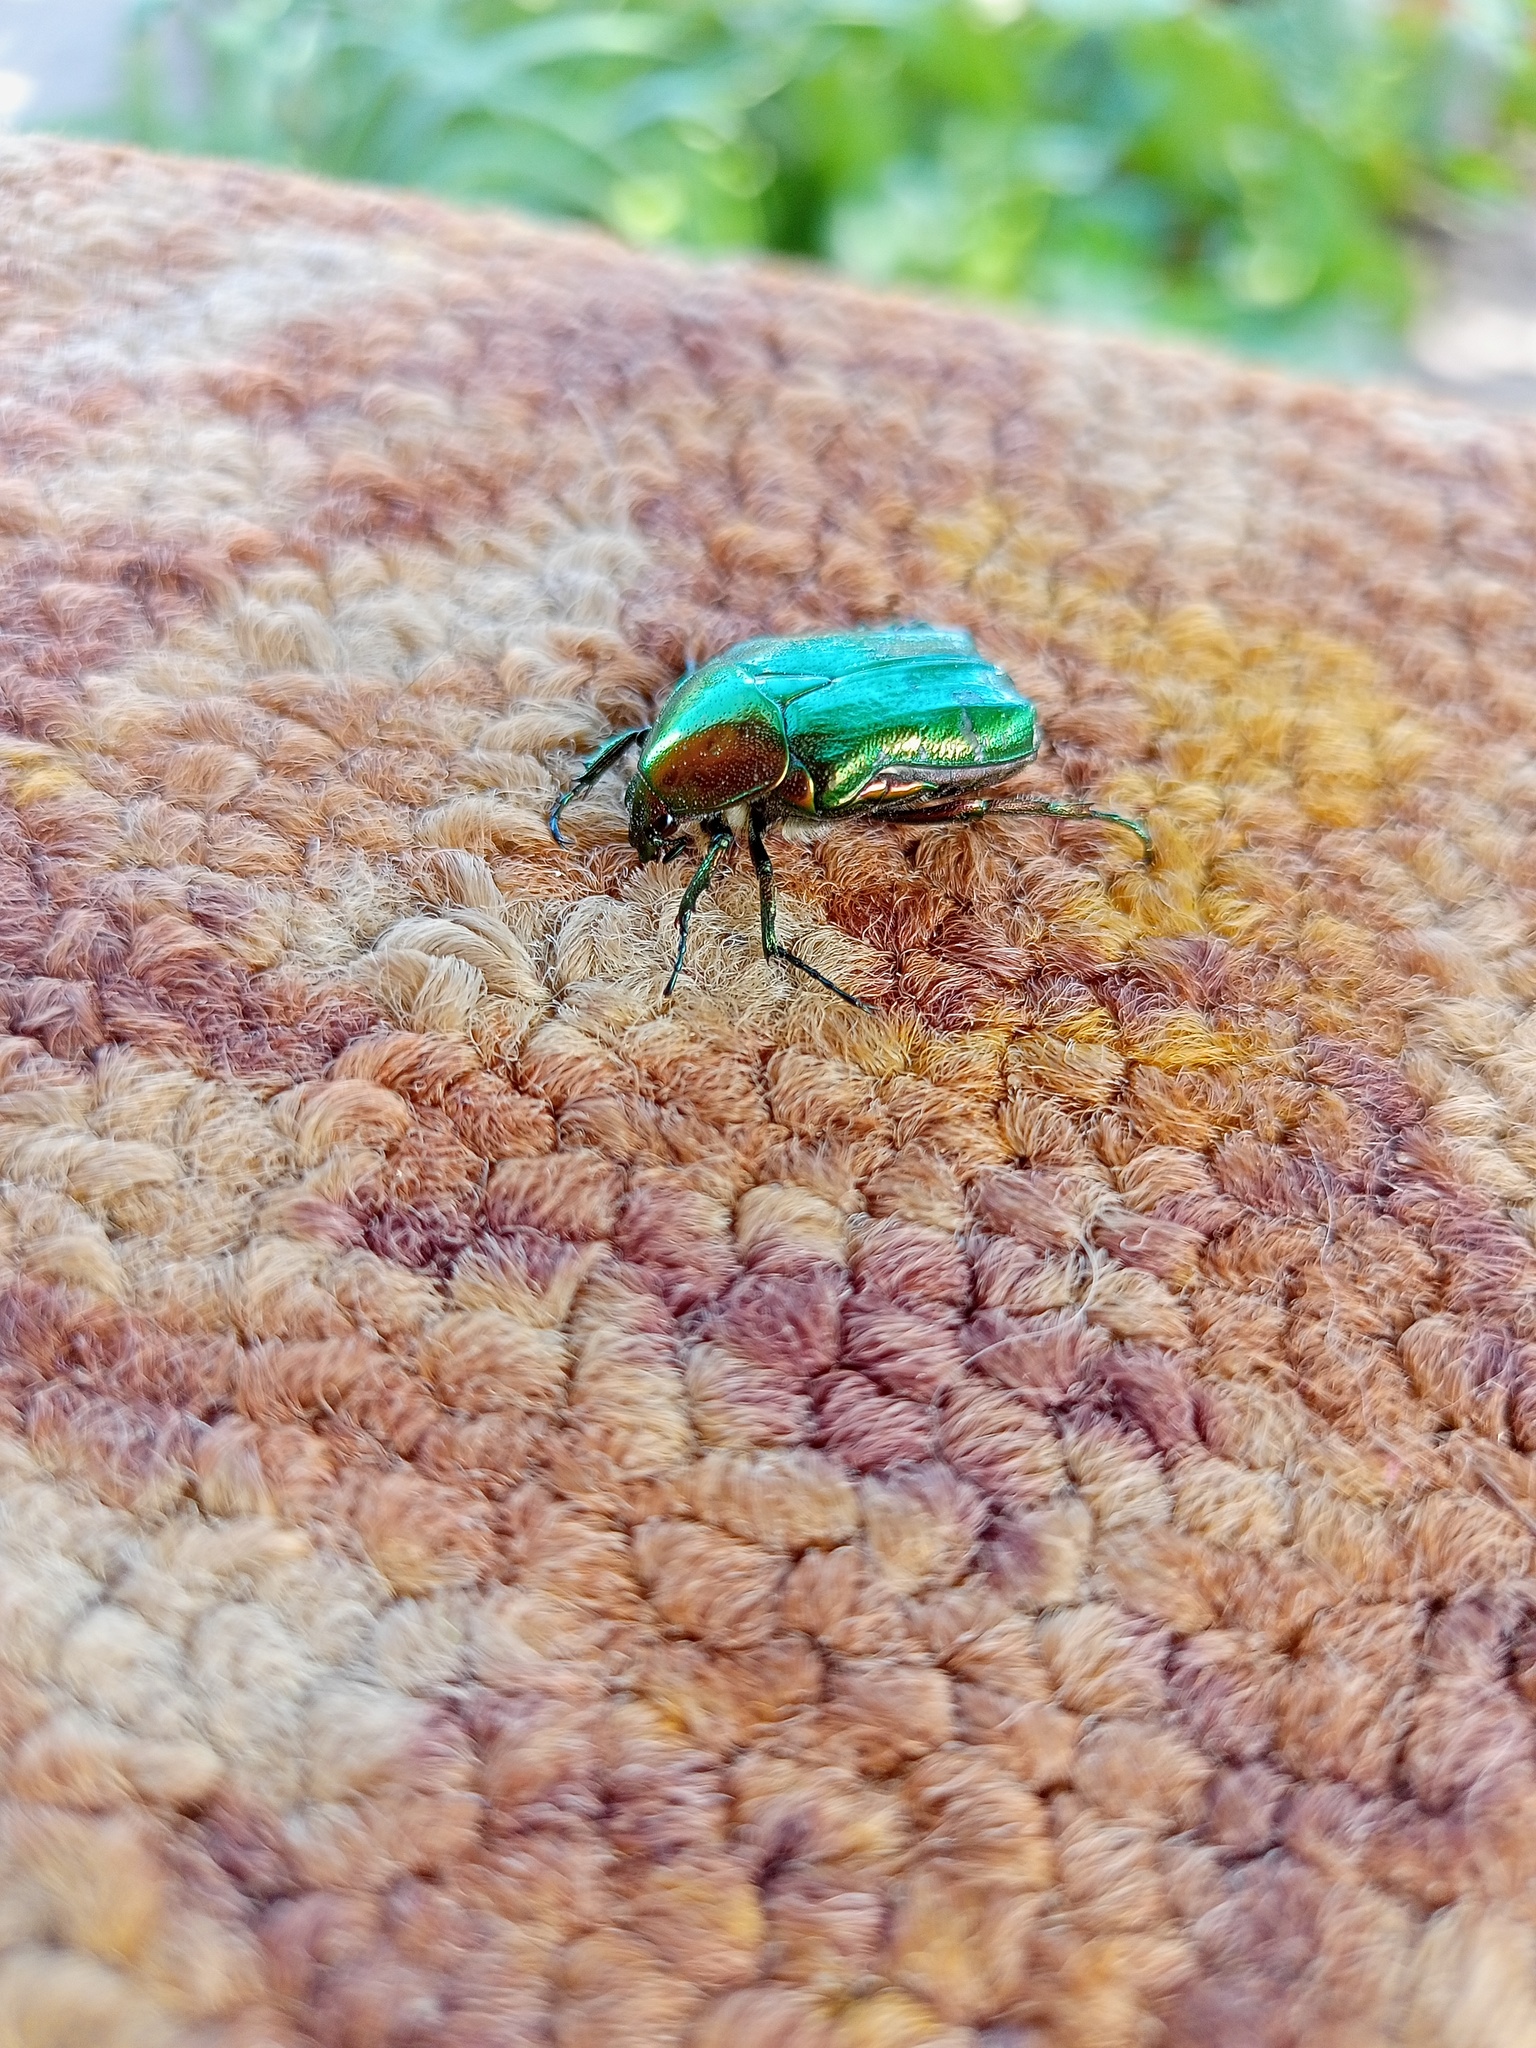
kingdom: Animalia
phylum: Arthropoda
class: Insecta
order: Coleoptera
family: Scarabaeidae
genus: Cetonia
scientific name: Cetonia aurata
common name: Rose chafer
